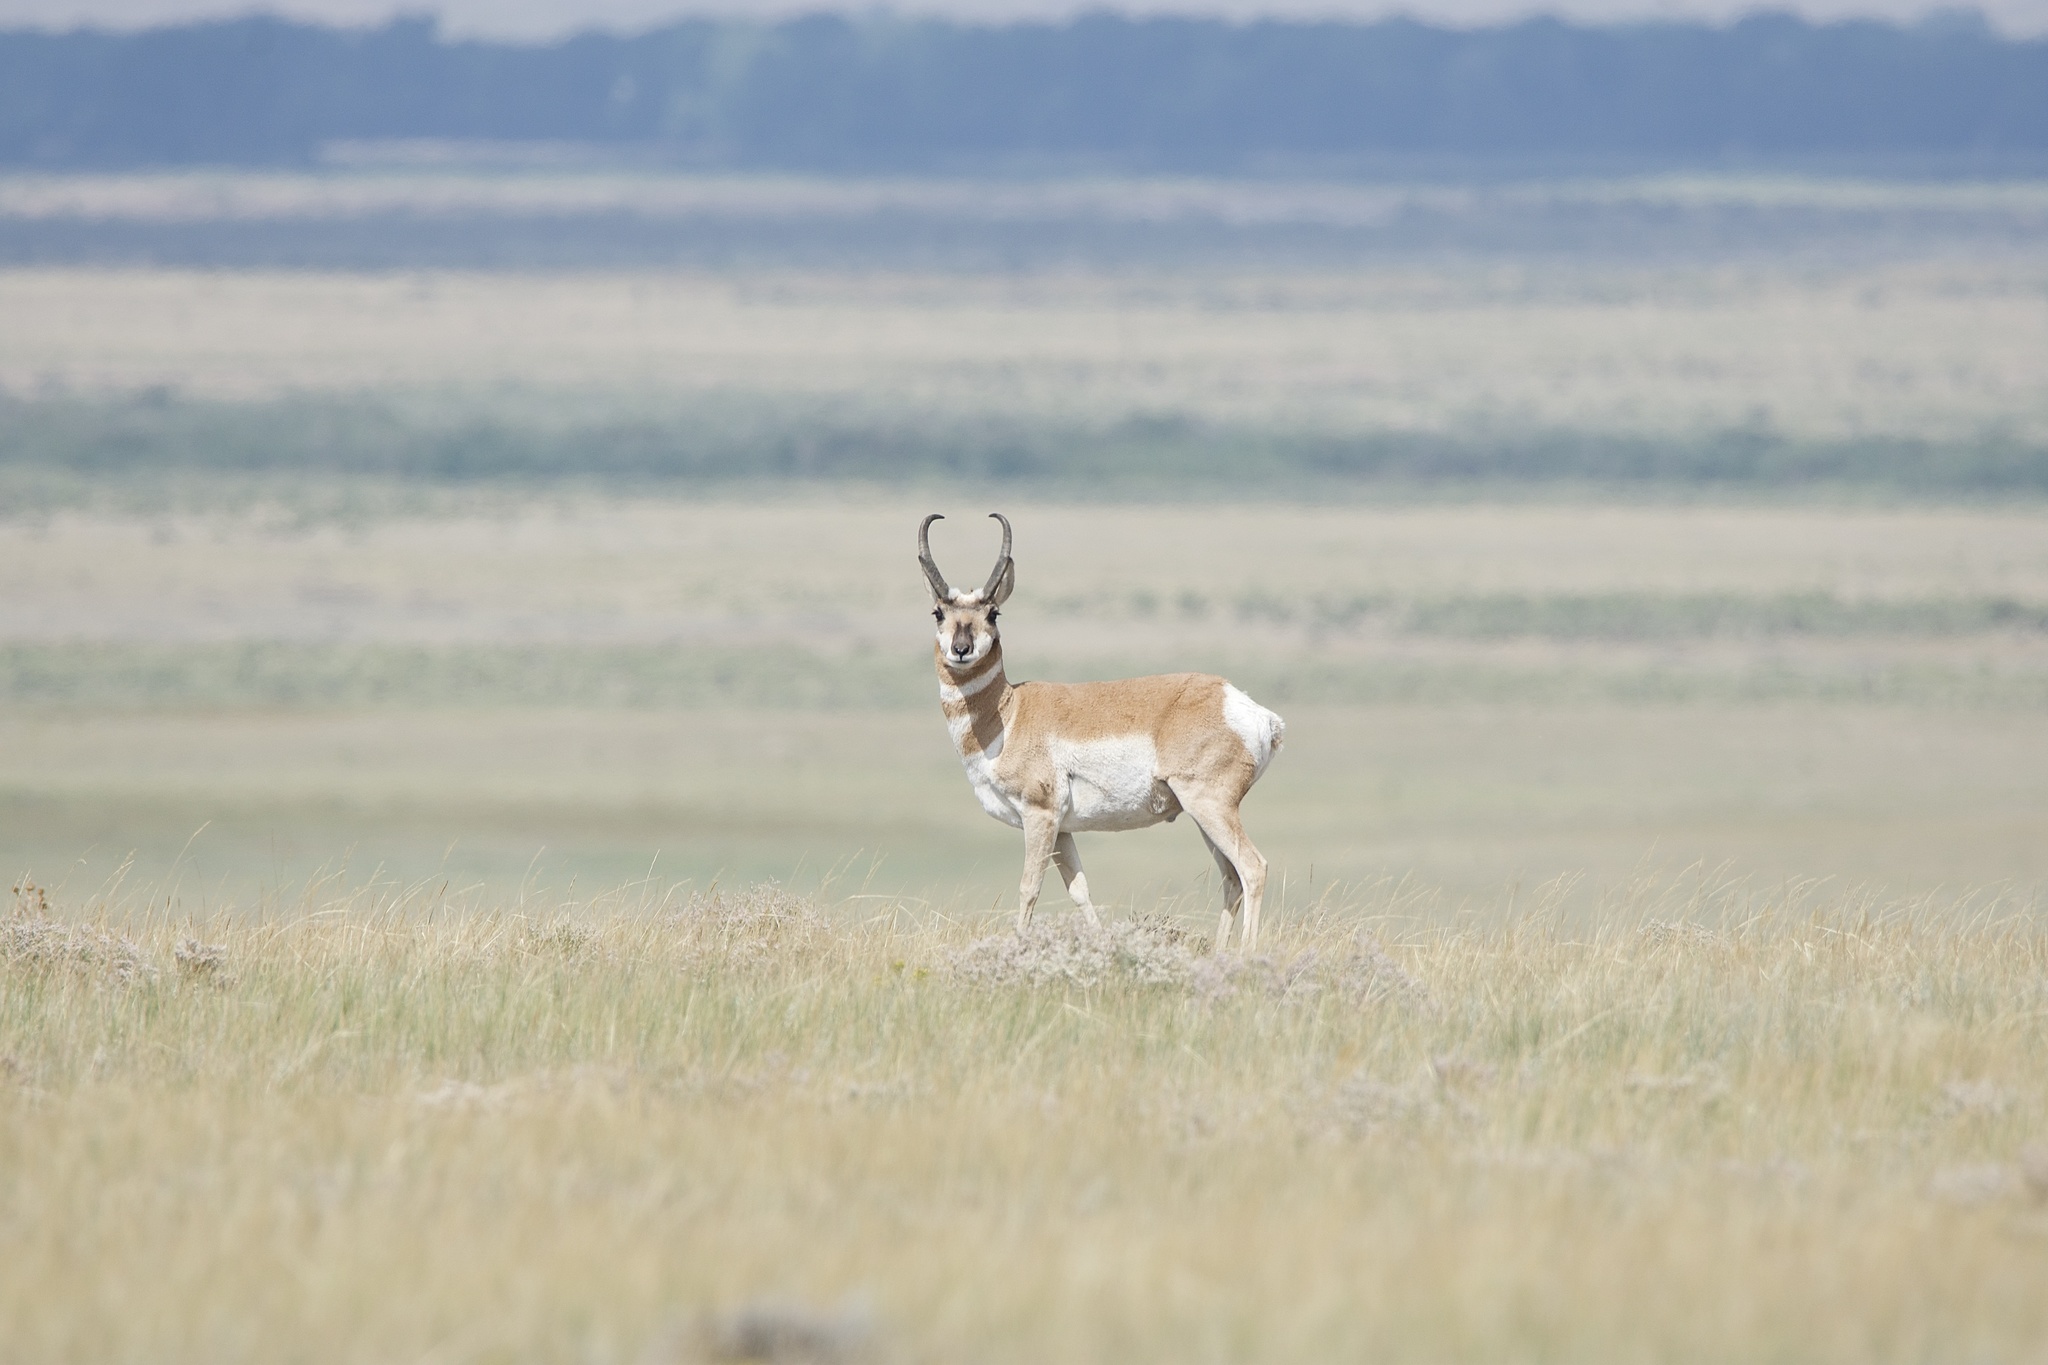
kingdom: Animalia
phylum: Chordata
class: Mammalia
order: Artiodactyla
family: Antilocapridae
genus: Antilocapra
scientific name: Antilocapra americana
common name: Pronghorn
